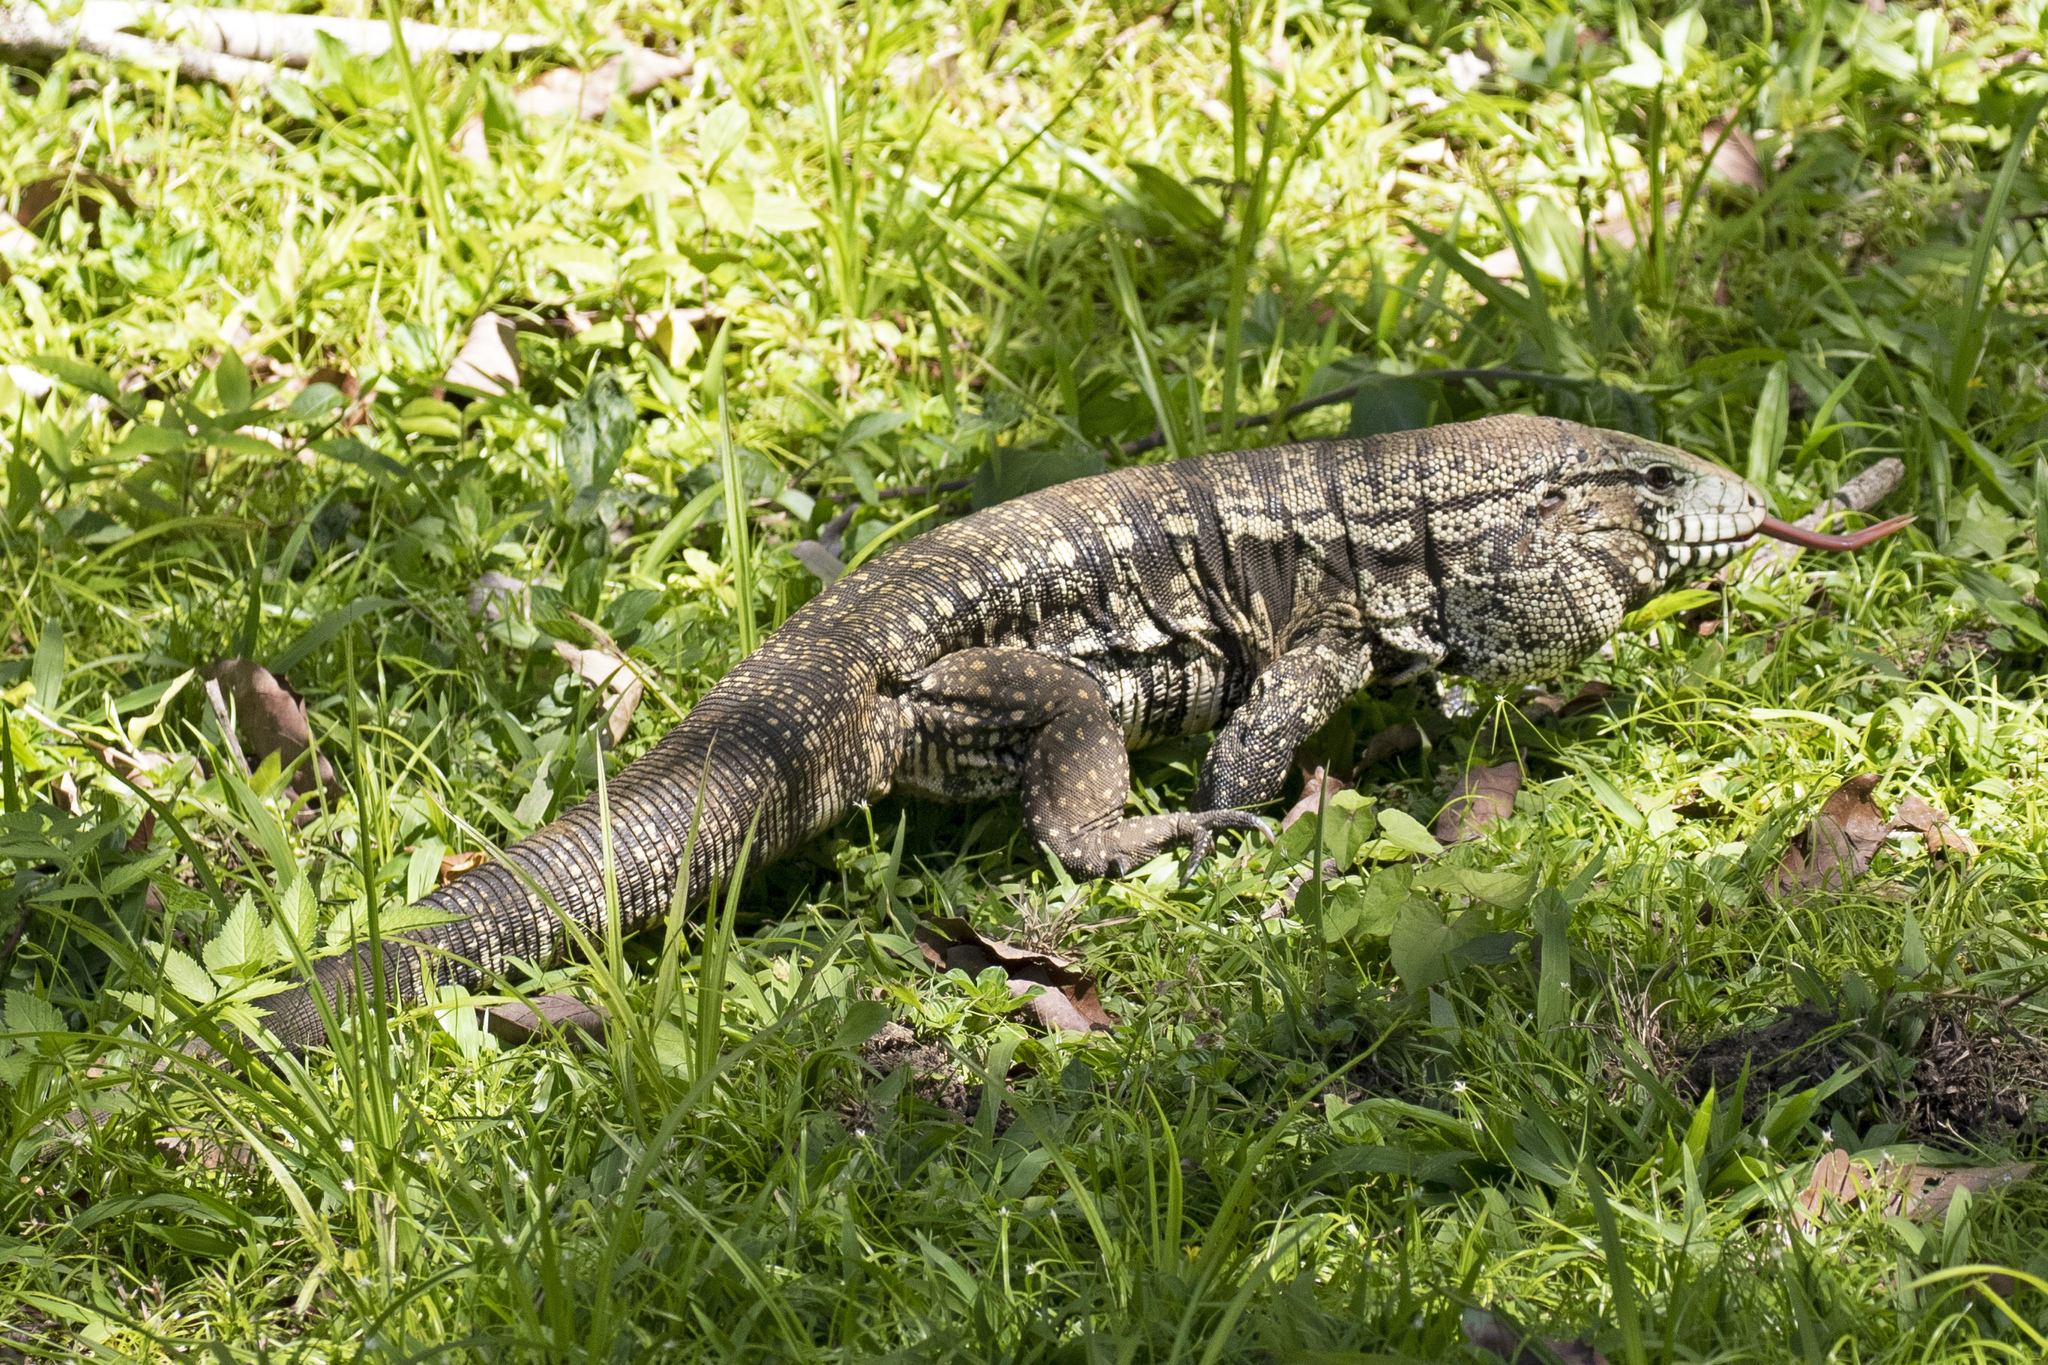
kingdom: Animalia
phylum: Chordata
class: Squamata
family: Teiidae
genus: Salvator
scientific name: Salvator merianae
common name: Argentine black and white tegu
